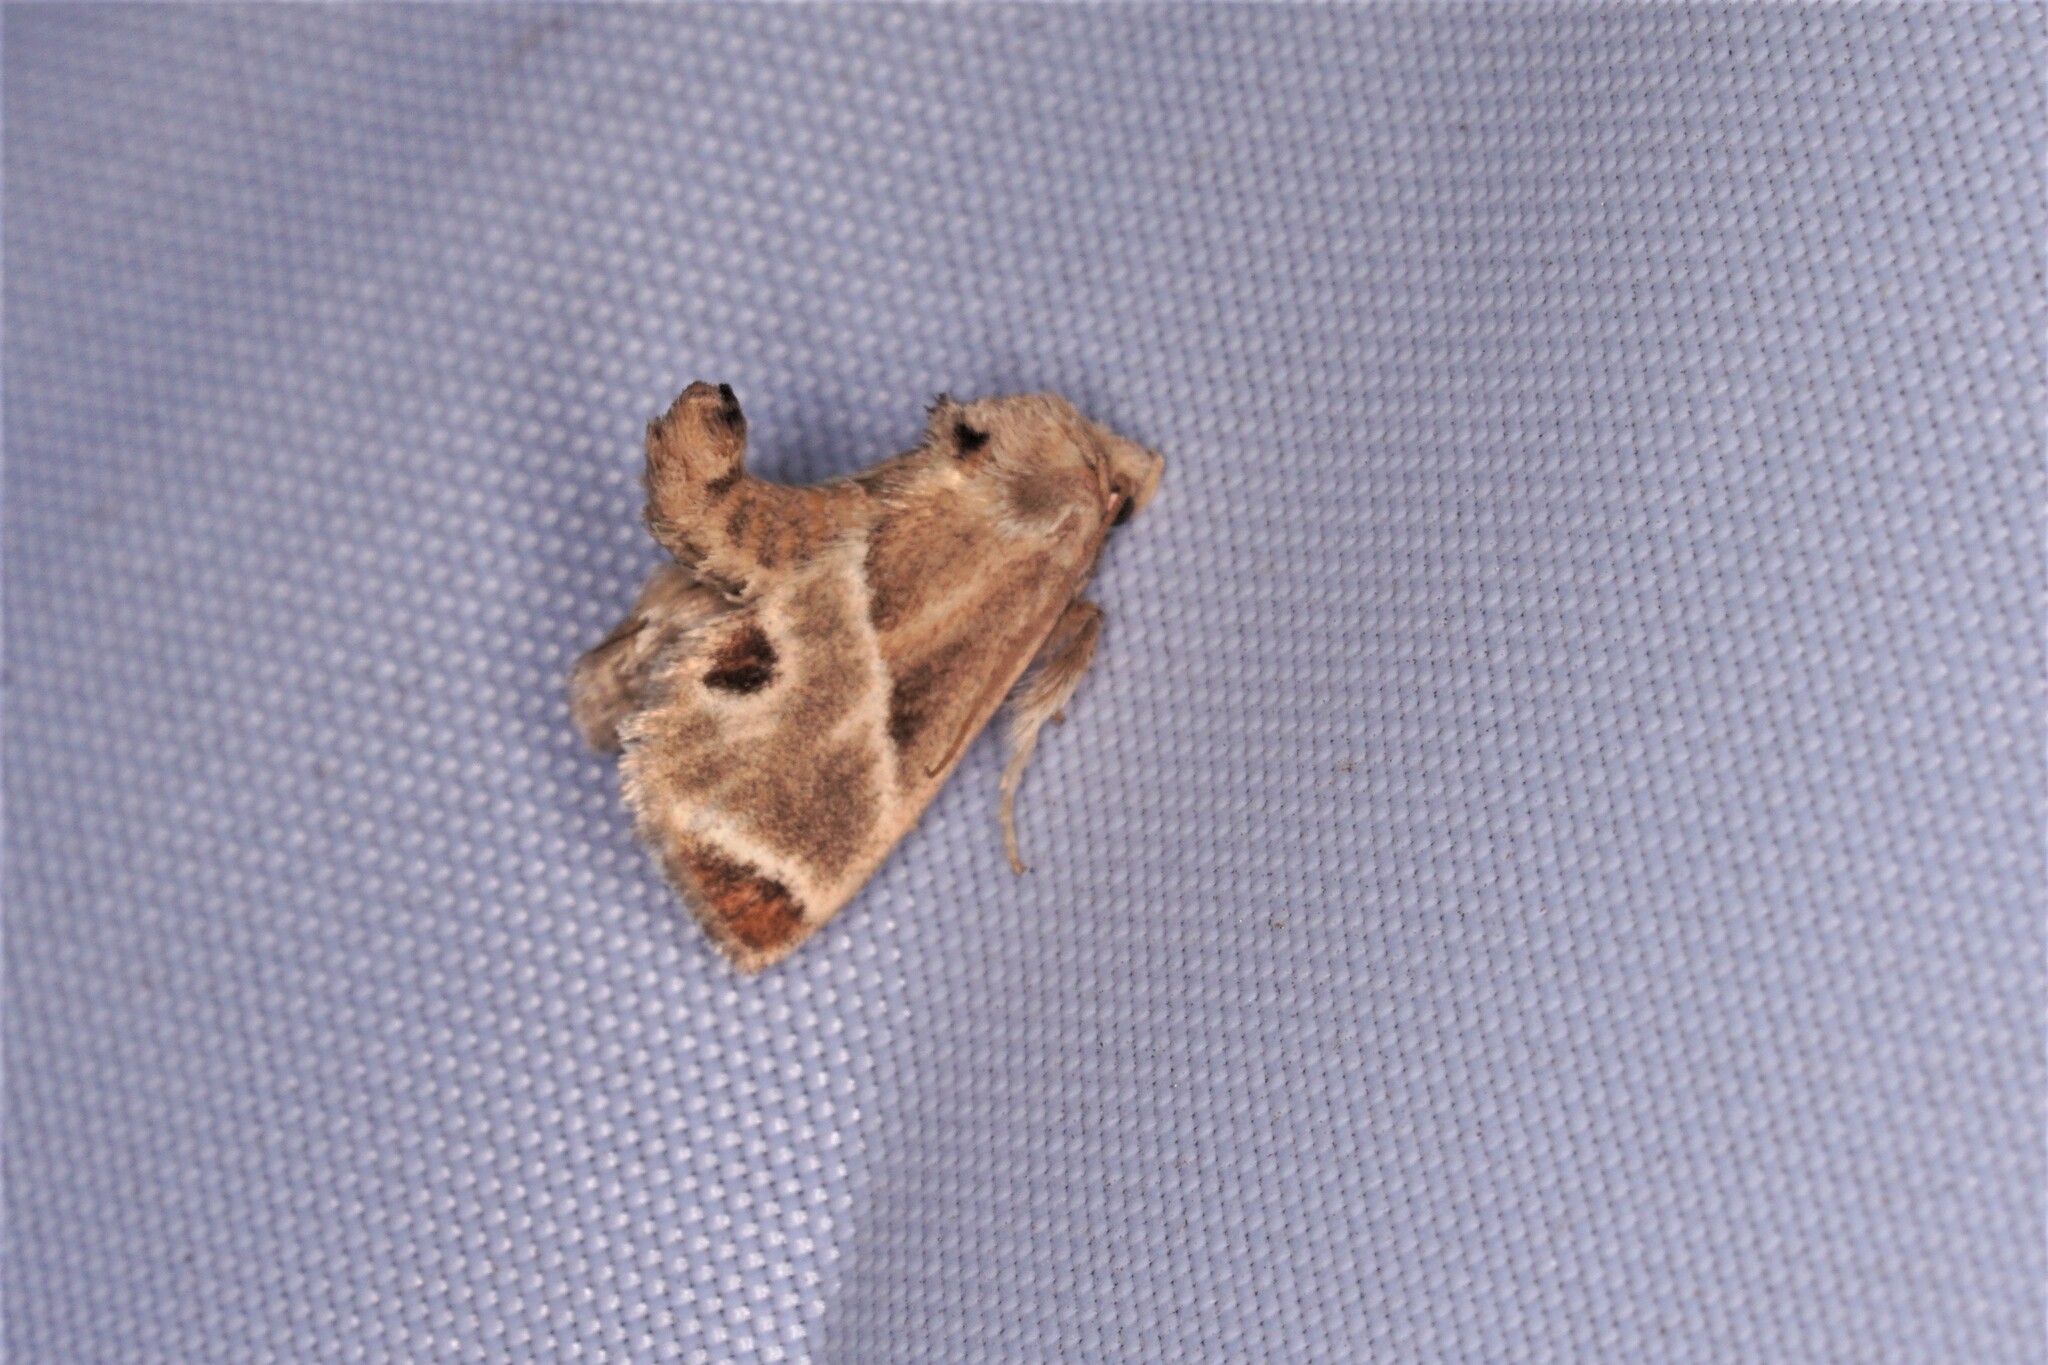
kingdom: Animalia
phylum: Arthropoda
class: Insecta
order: Lepidoptera
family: Limacodidae
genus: Apoda
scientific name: Apoda biguttata
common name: Shagreened slug moth
